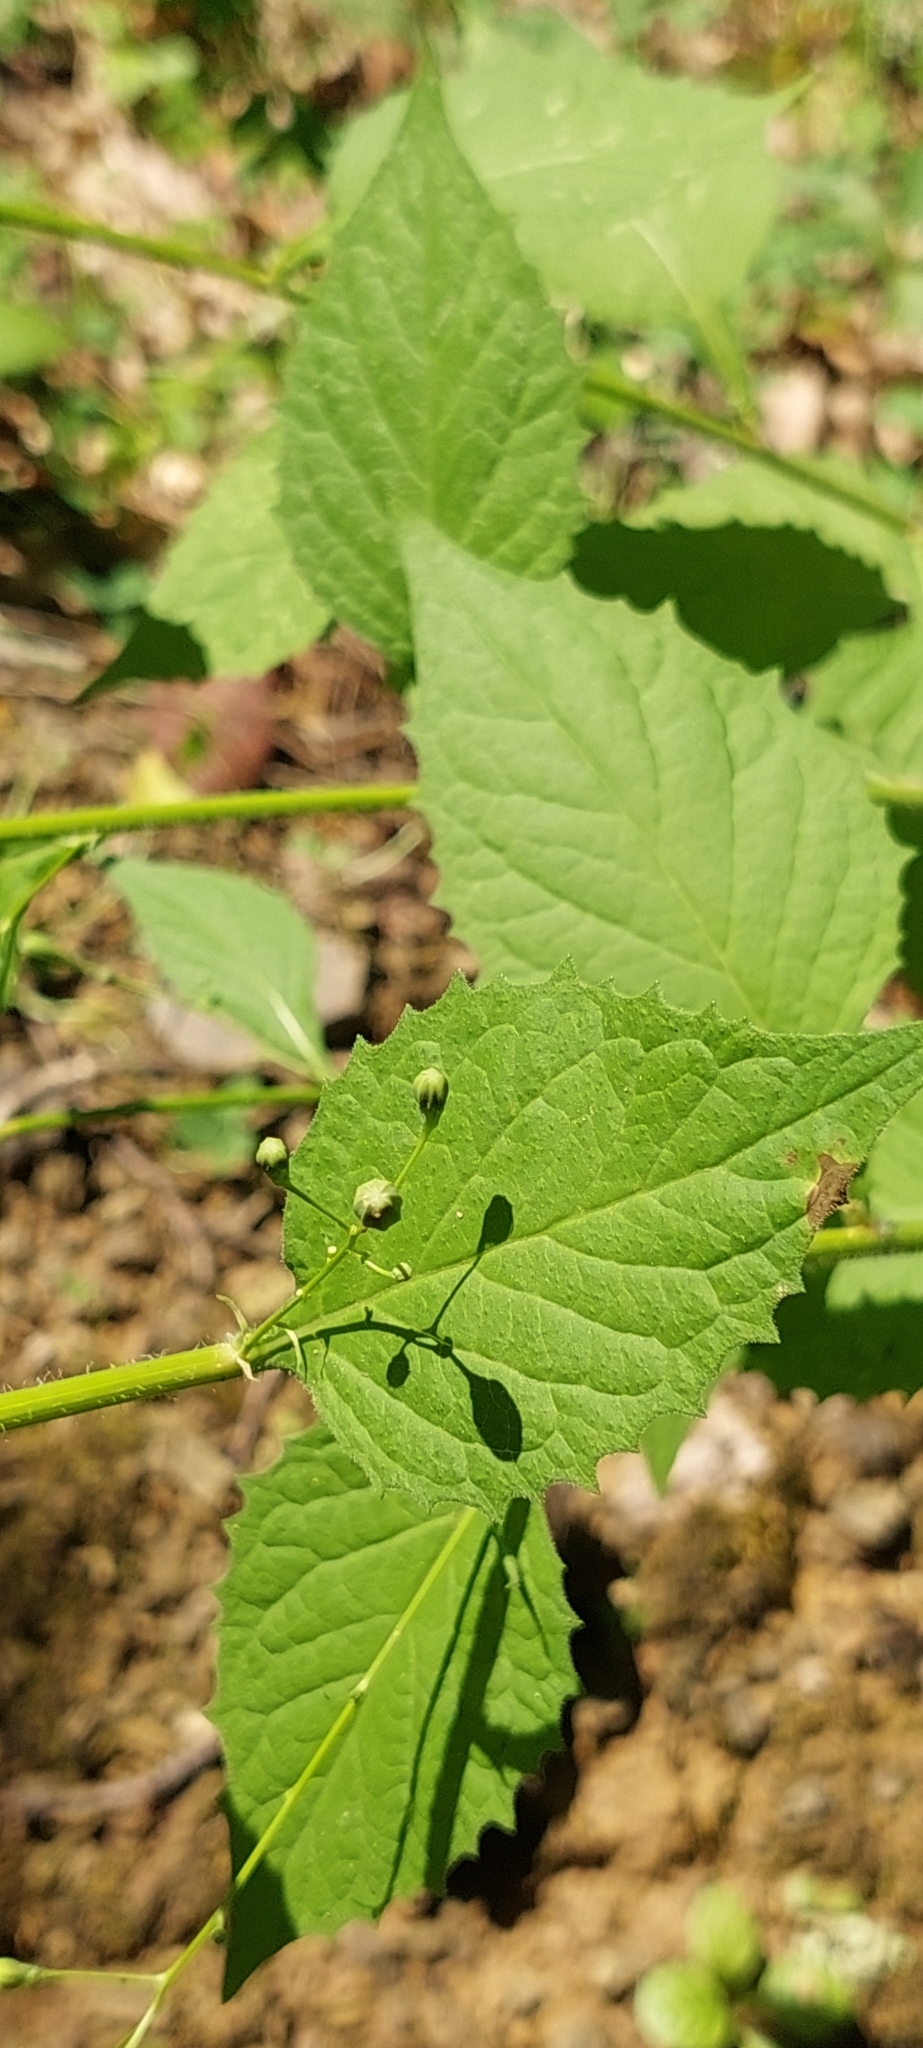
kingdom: Plantae
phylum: Tracheophyta
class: Magnoliopsida
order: Asterales
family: Asteraceae
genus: Lapsana
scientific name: Lapsana communis
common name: Nipplewort
